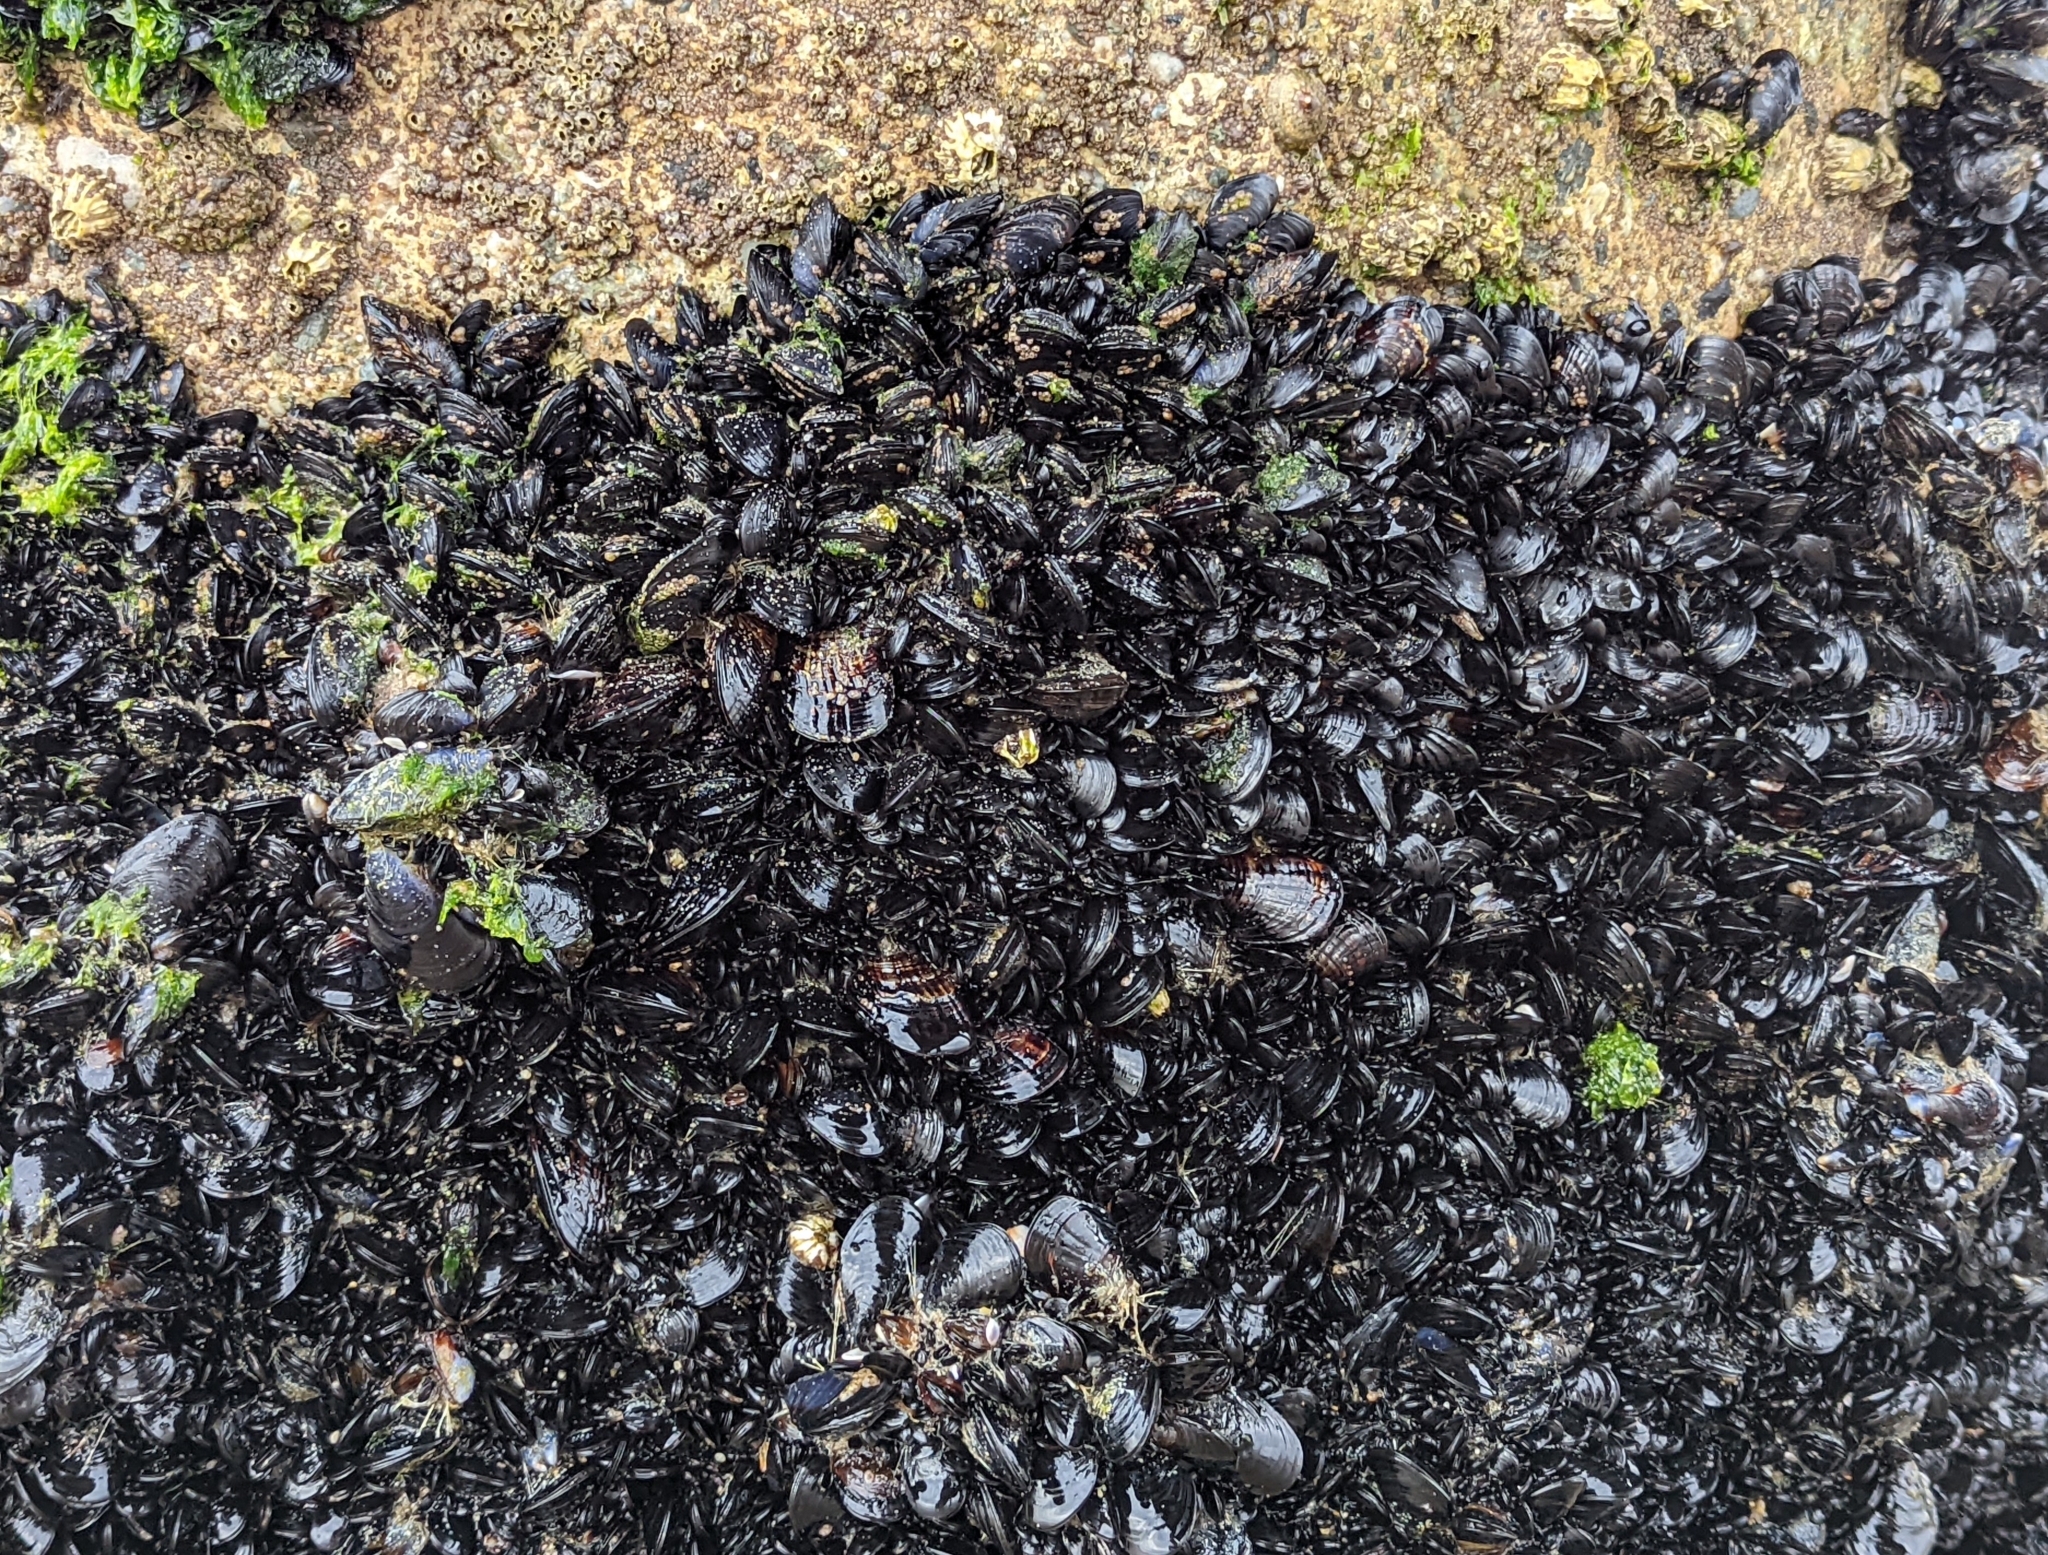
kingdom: Animalia
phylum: Mollusca
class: Bivalvia
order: Mytilida
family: Mytilidae
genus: Mytilus
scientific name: Mytilus californianus
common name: California mussel
